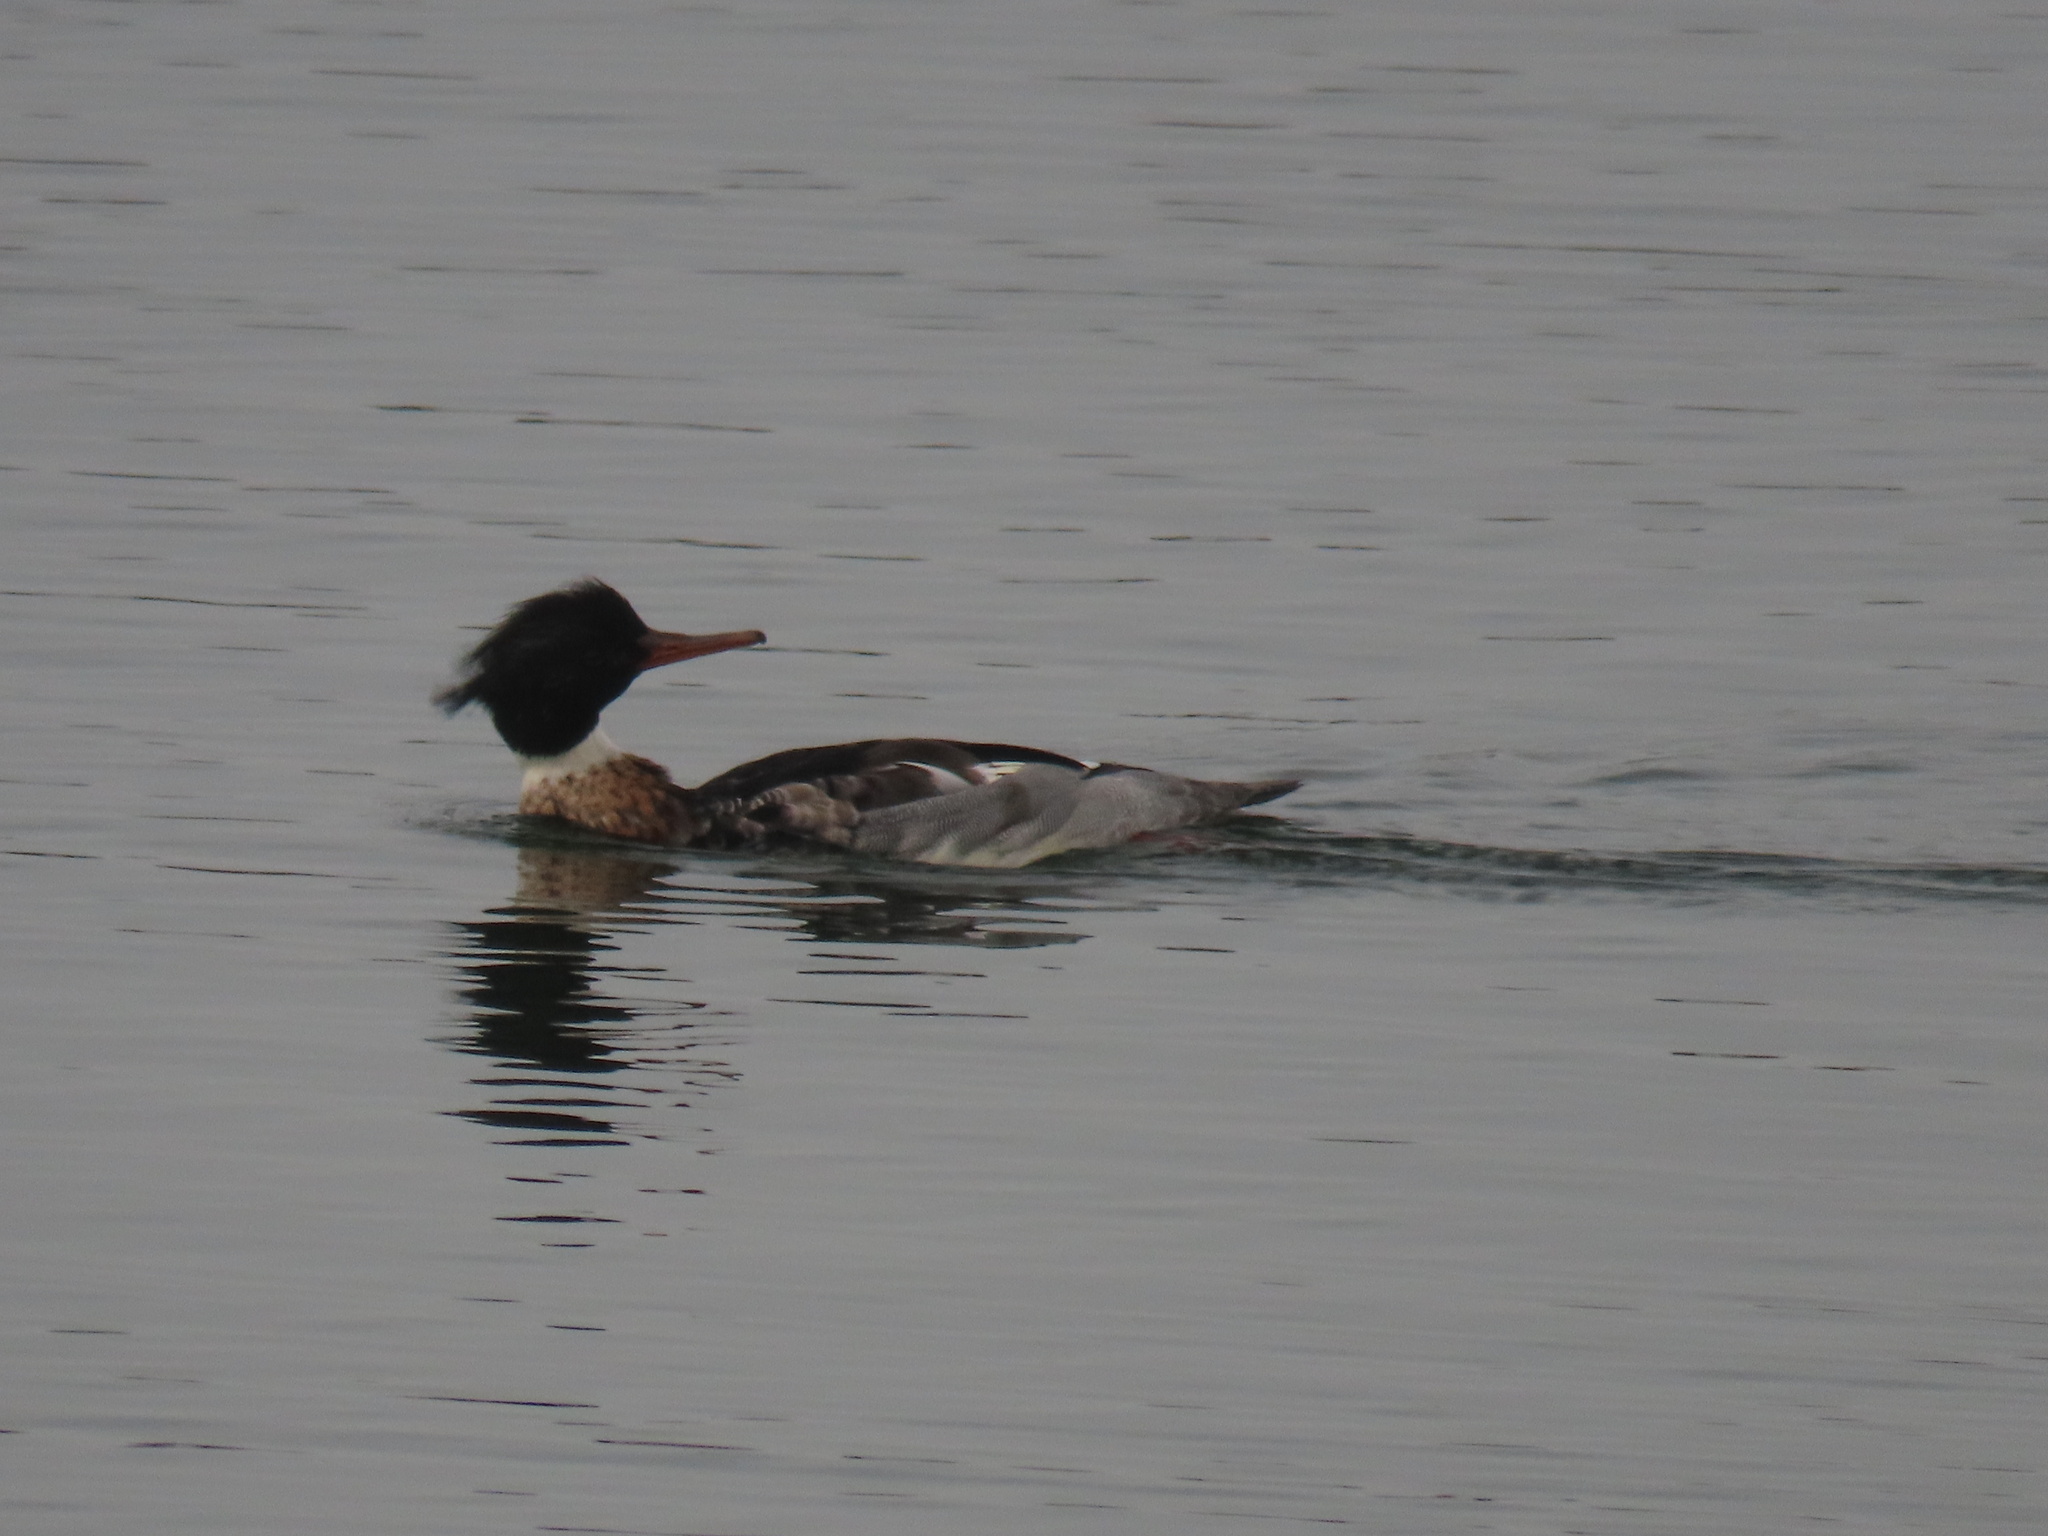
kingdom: Animalia
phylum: Chordata
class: Aves
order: Anseriformes
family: Anatidae
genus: Mergus
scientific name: Mergus serrator
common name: Red-breasted merganser
